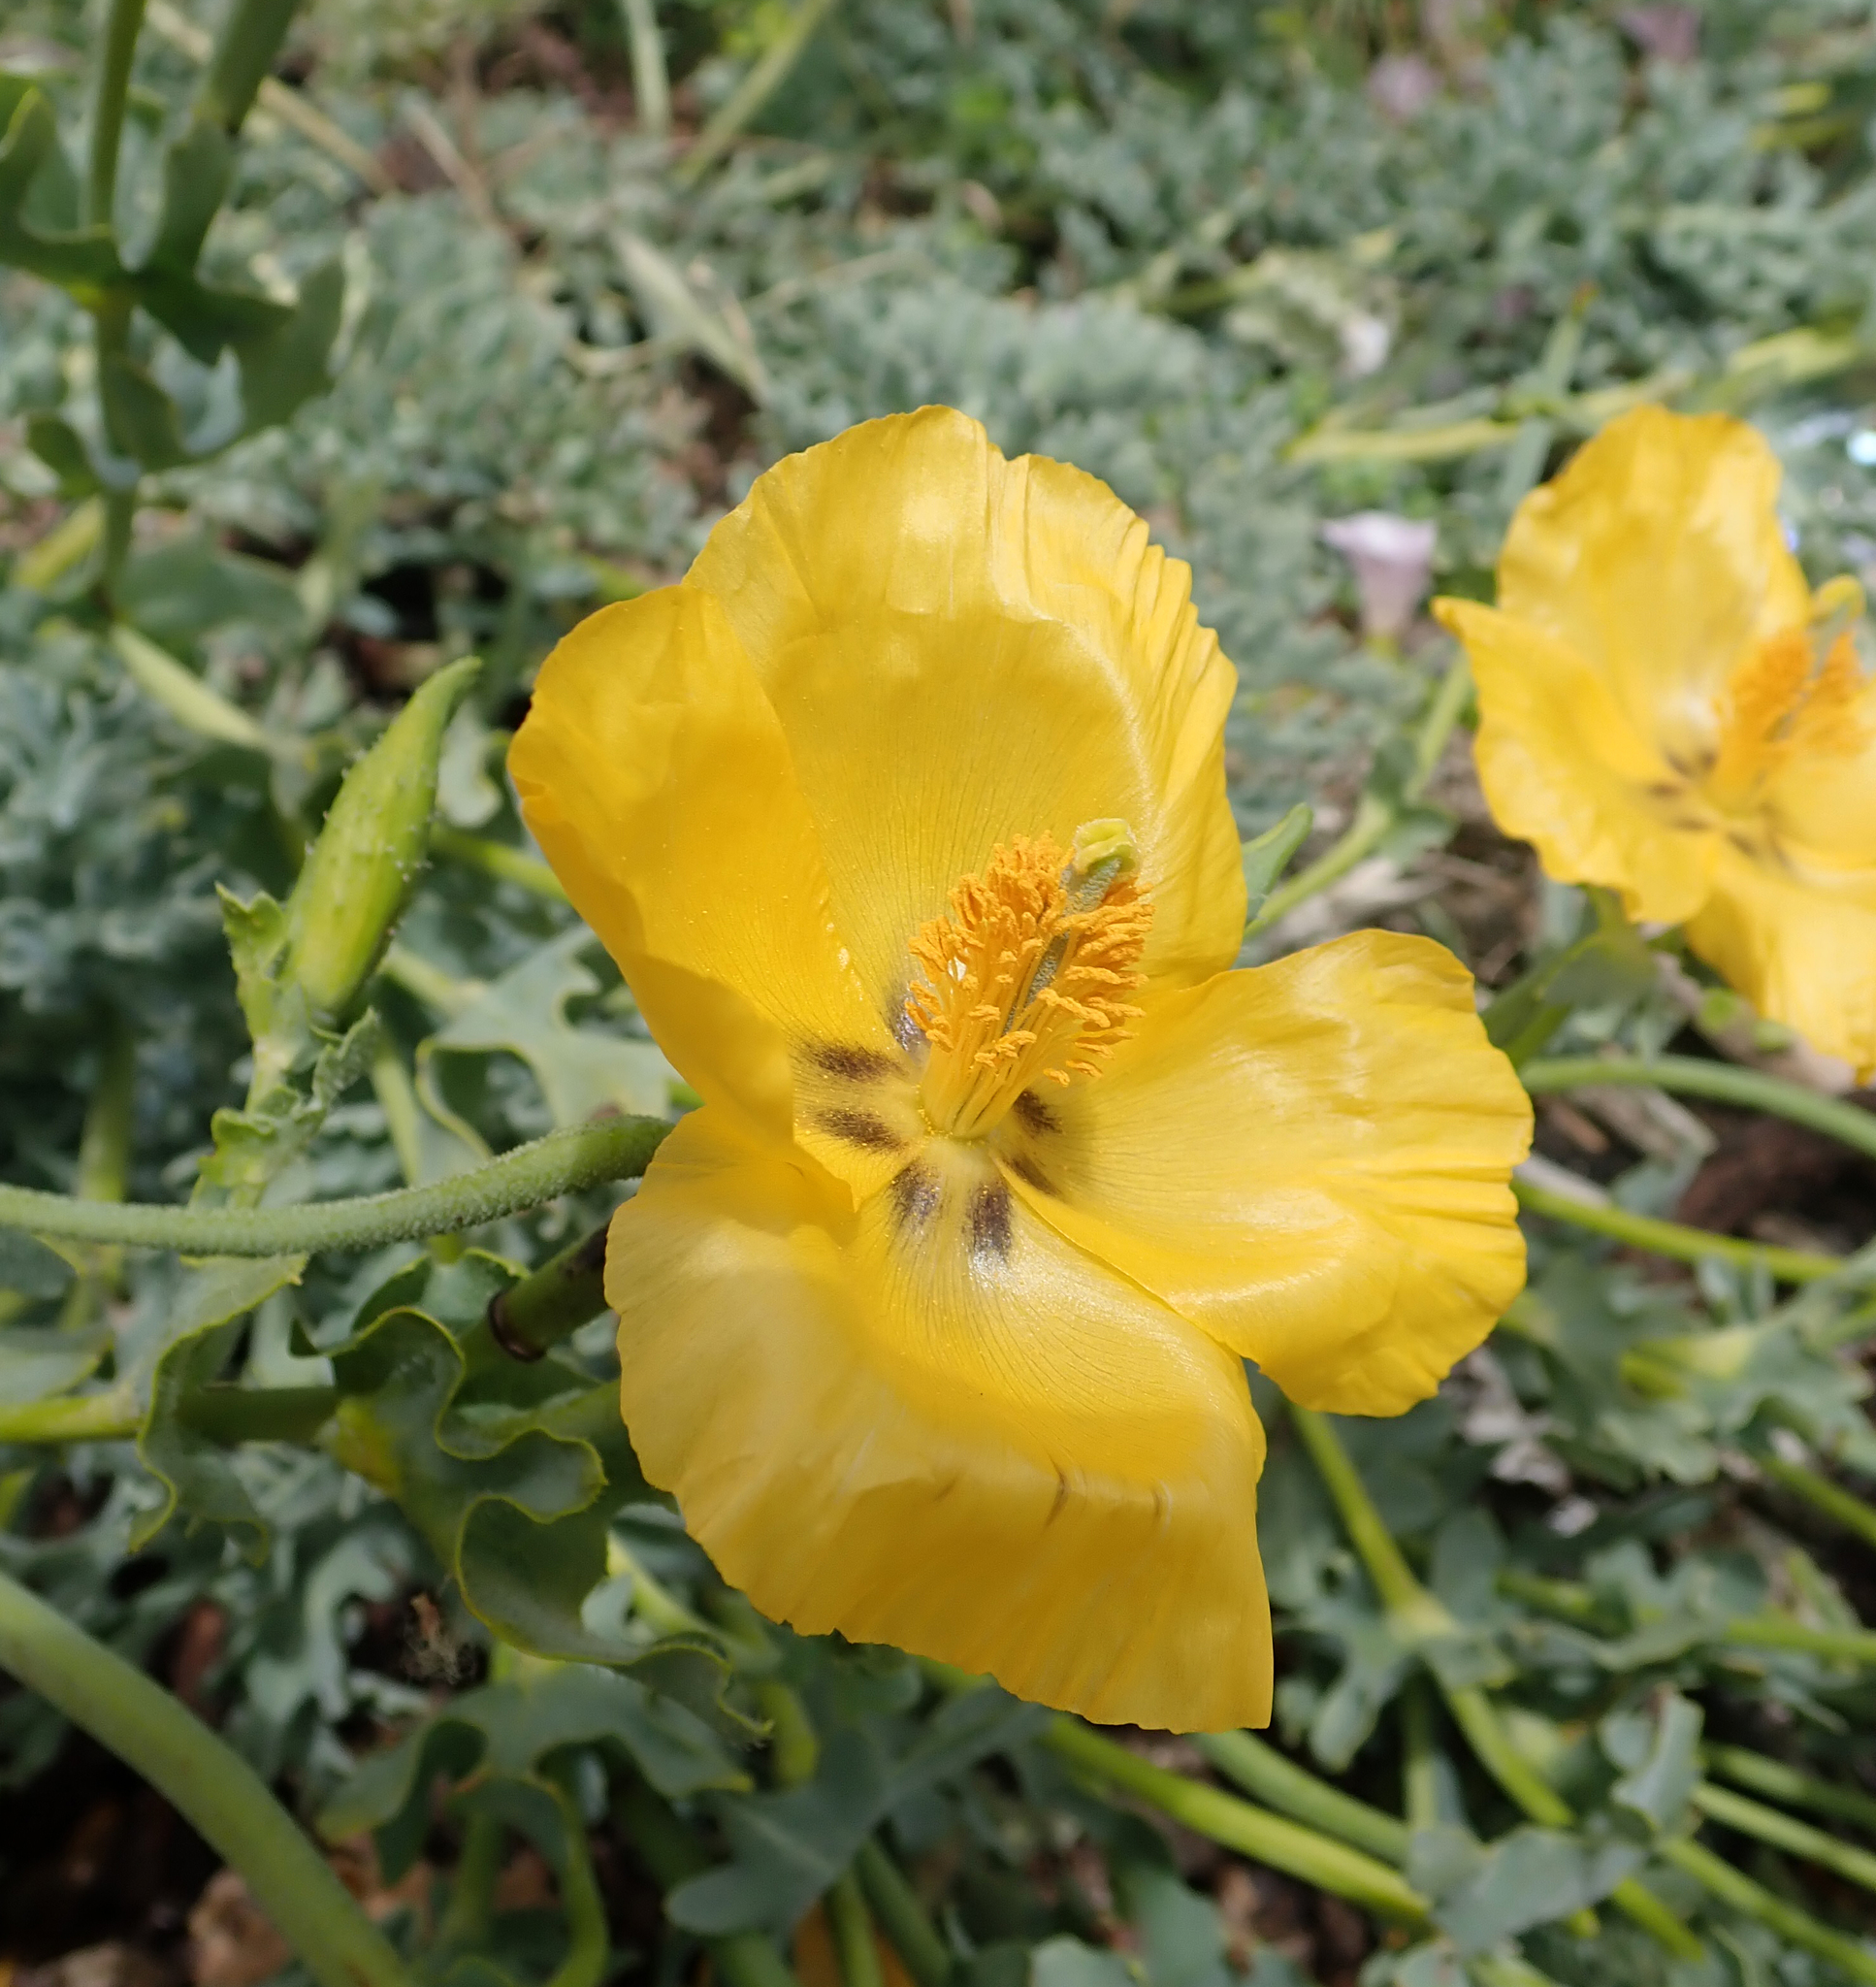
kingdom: Plantae
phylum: Tracheophyta
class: Magnoliopsida
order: Ranunculales
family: Papaveraceae
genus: Glaucium
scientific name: Glaucium flavum
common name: Yellow horned-poppy
